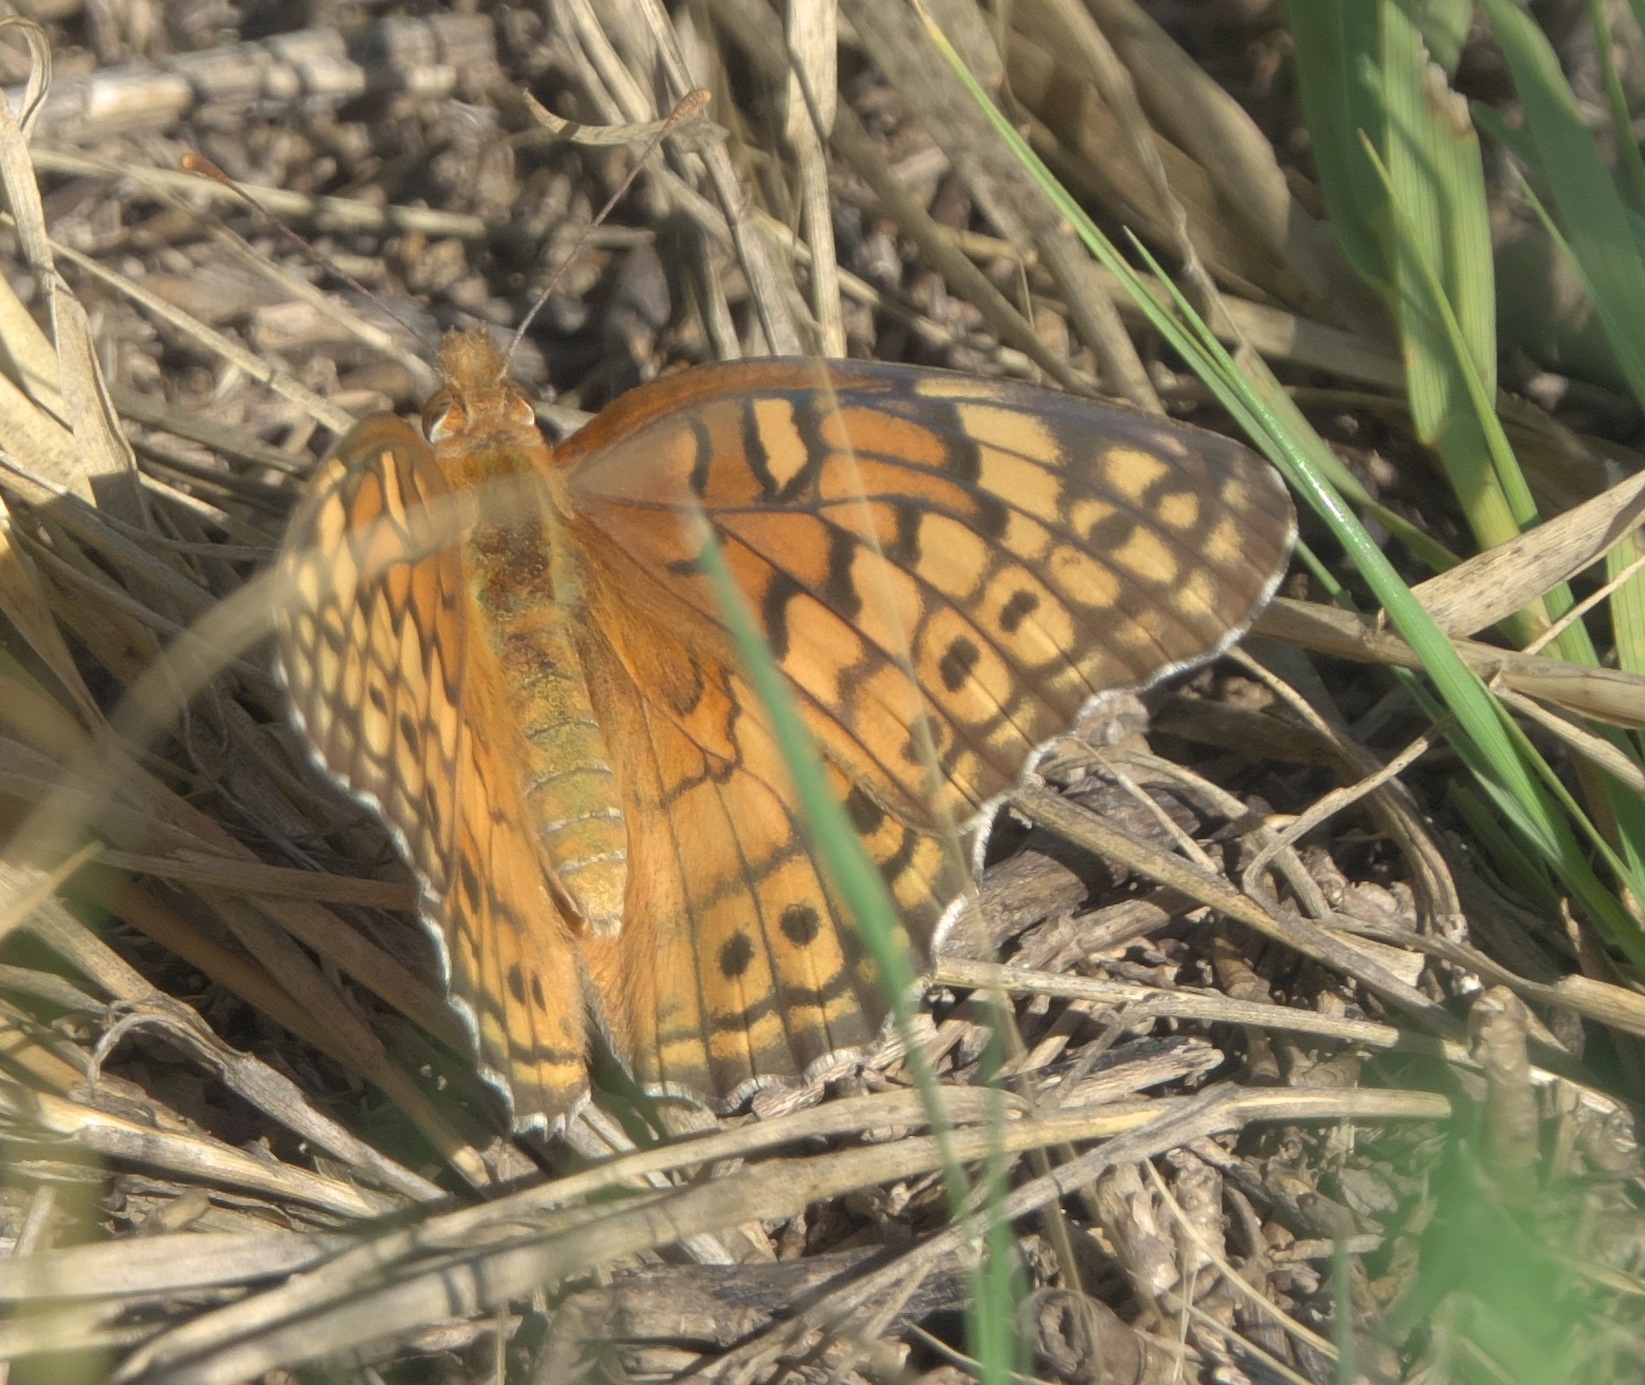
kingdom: Animalia
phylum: Arthropoda
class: Insecta
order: Lepidoptera
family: Nymphalidae
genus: Euptoieta
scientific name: Euptoieta claudia
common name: Variegated fritillary
